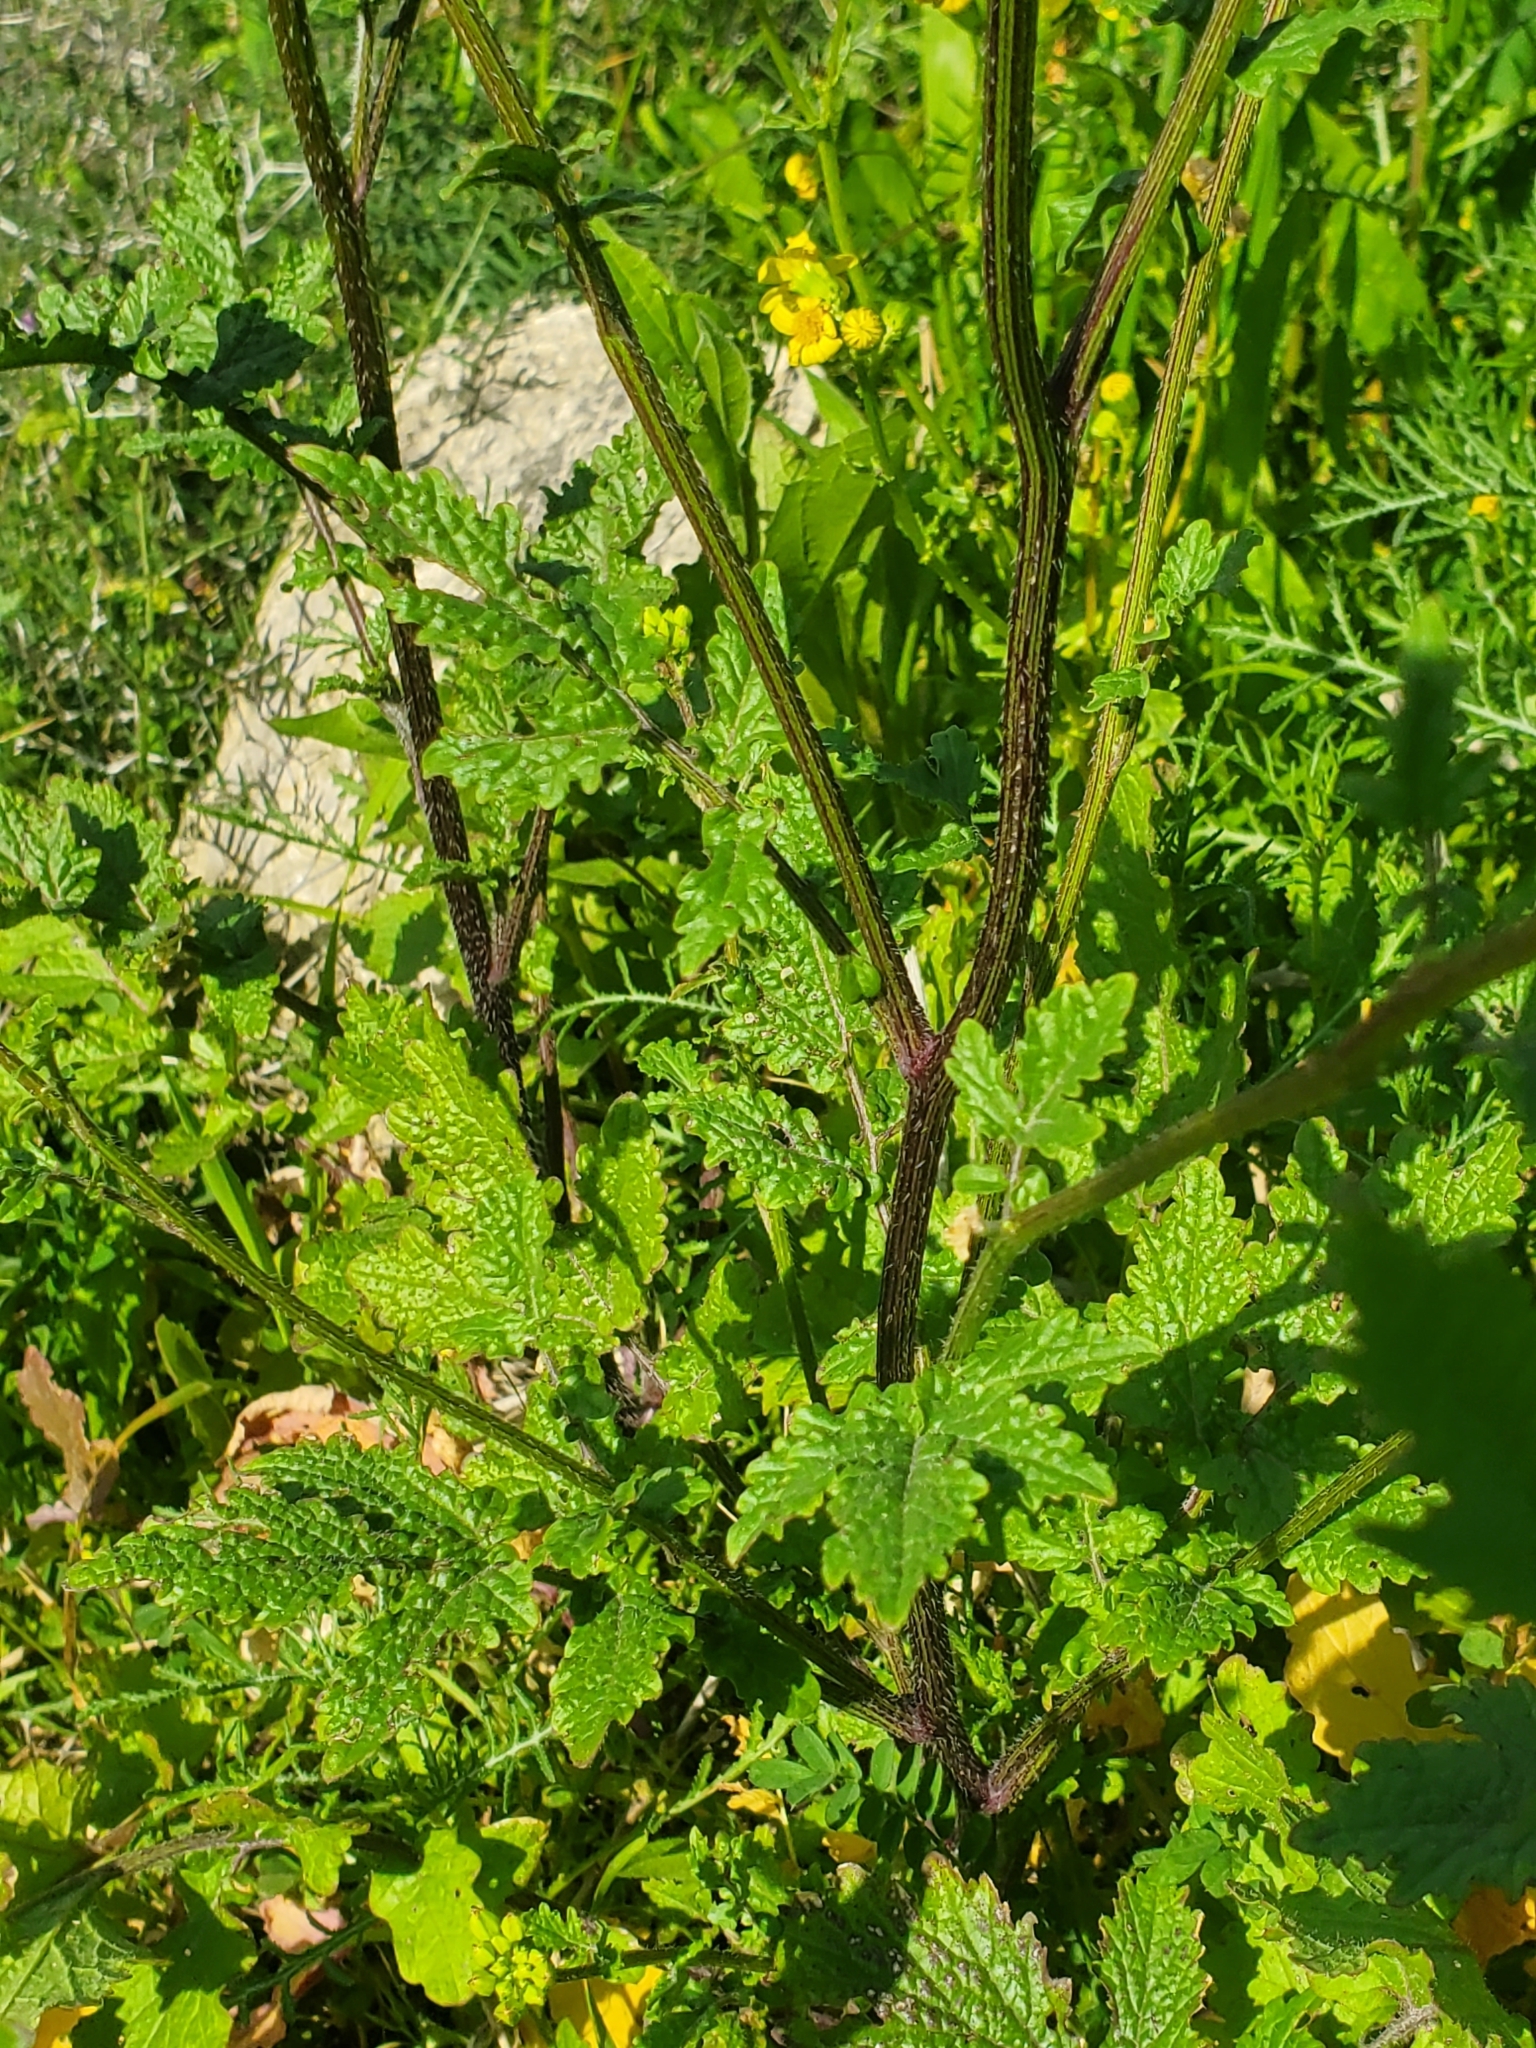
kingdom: Plantae
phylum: Tracheophyta
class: Magnoliopsida
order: Brassicales
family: Brassicaceae
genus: Sinapis
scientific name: Sinapis alba
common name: White mustard
